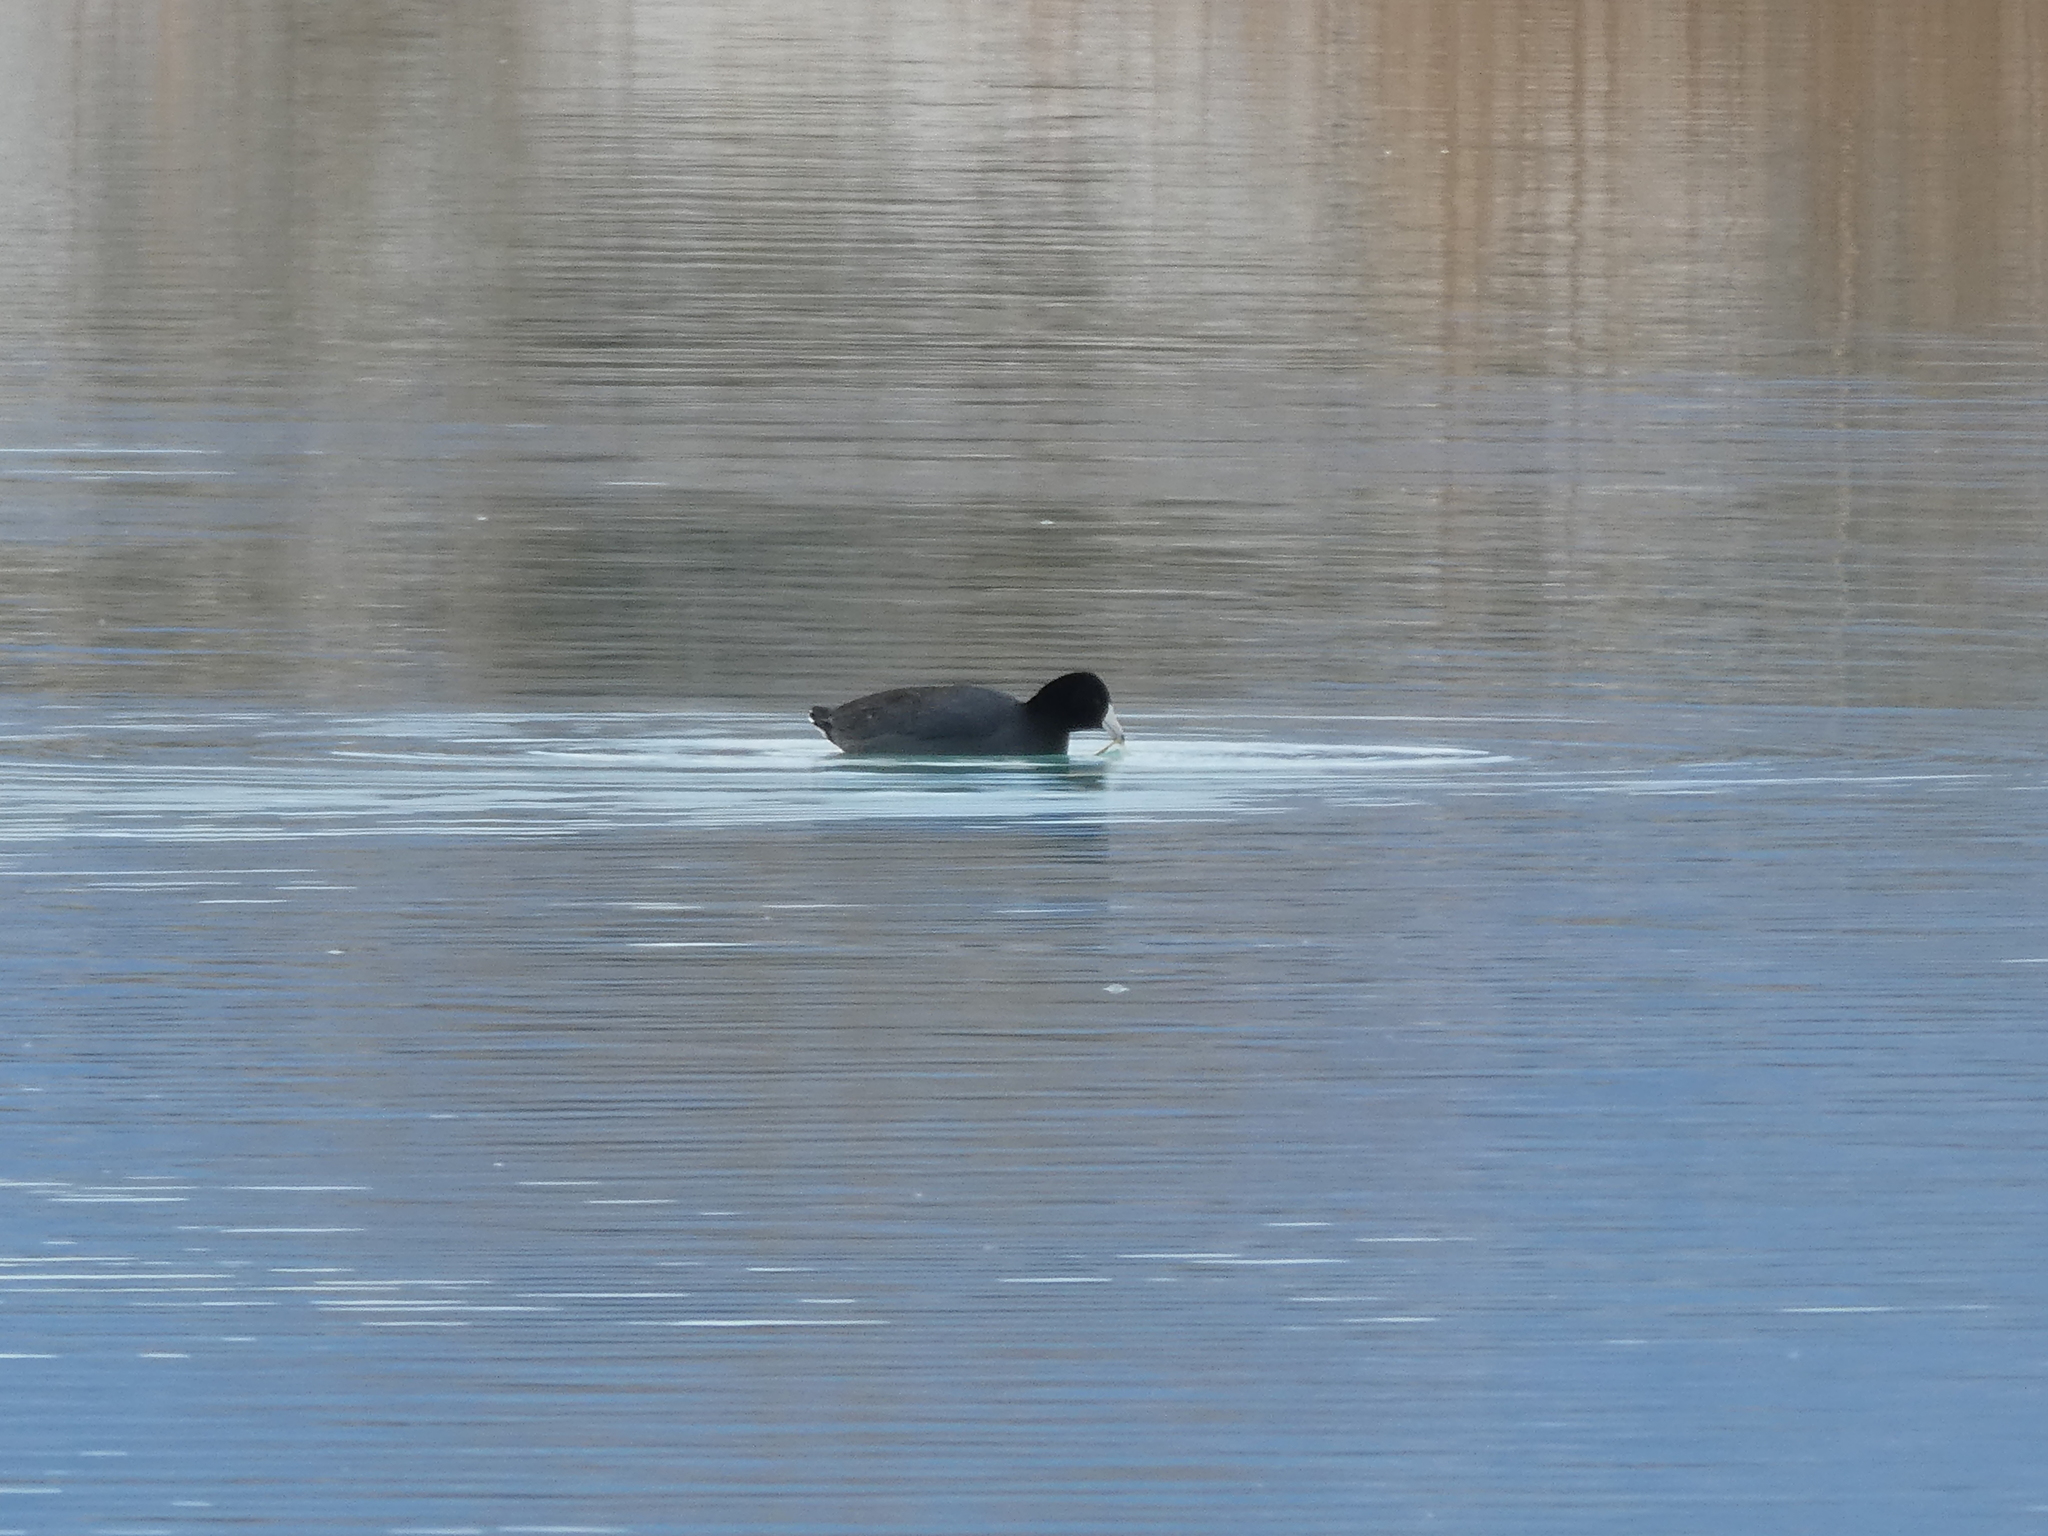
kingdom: Animalia
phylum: Chordata
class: Aves
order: Gruiformes
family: Rallidae
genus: Fulica
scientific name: Fulica americana
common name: American coot
